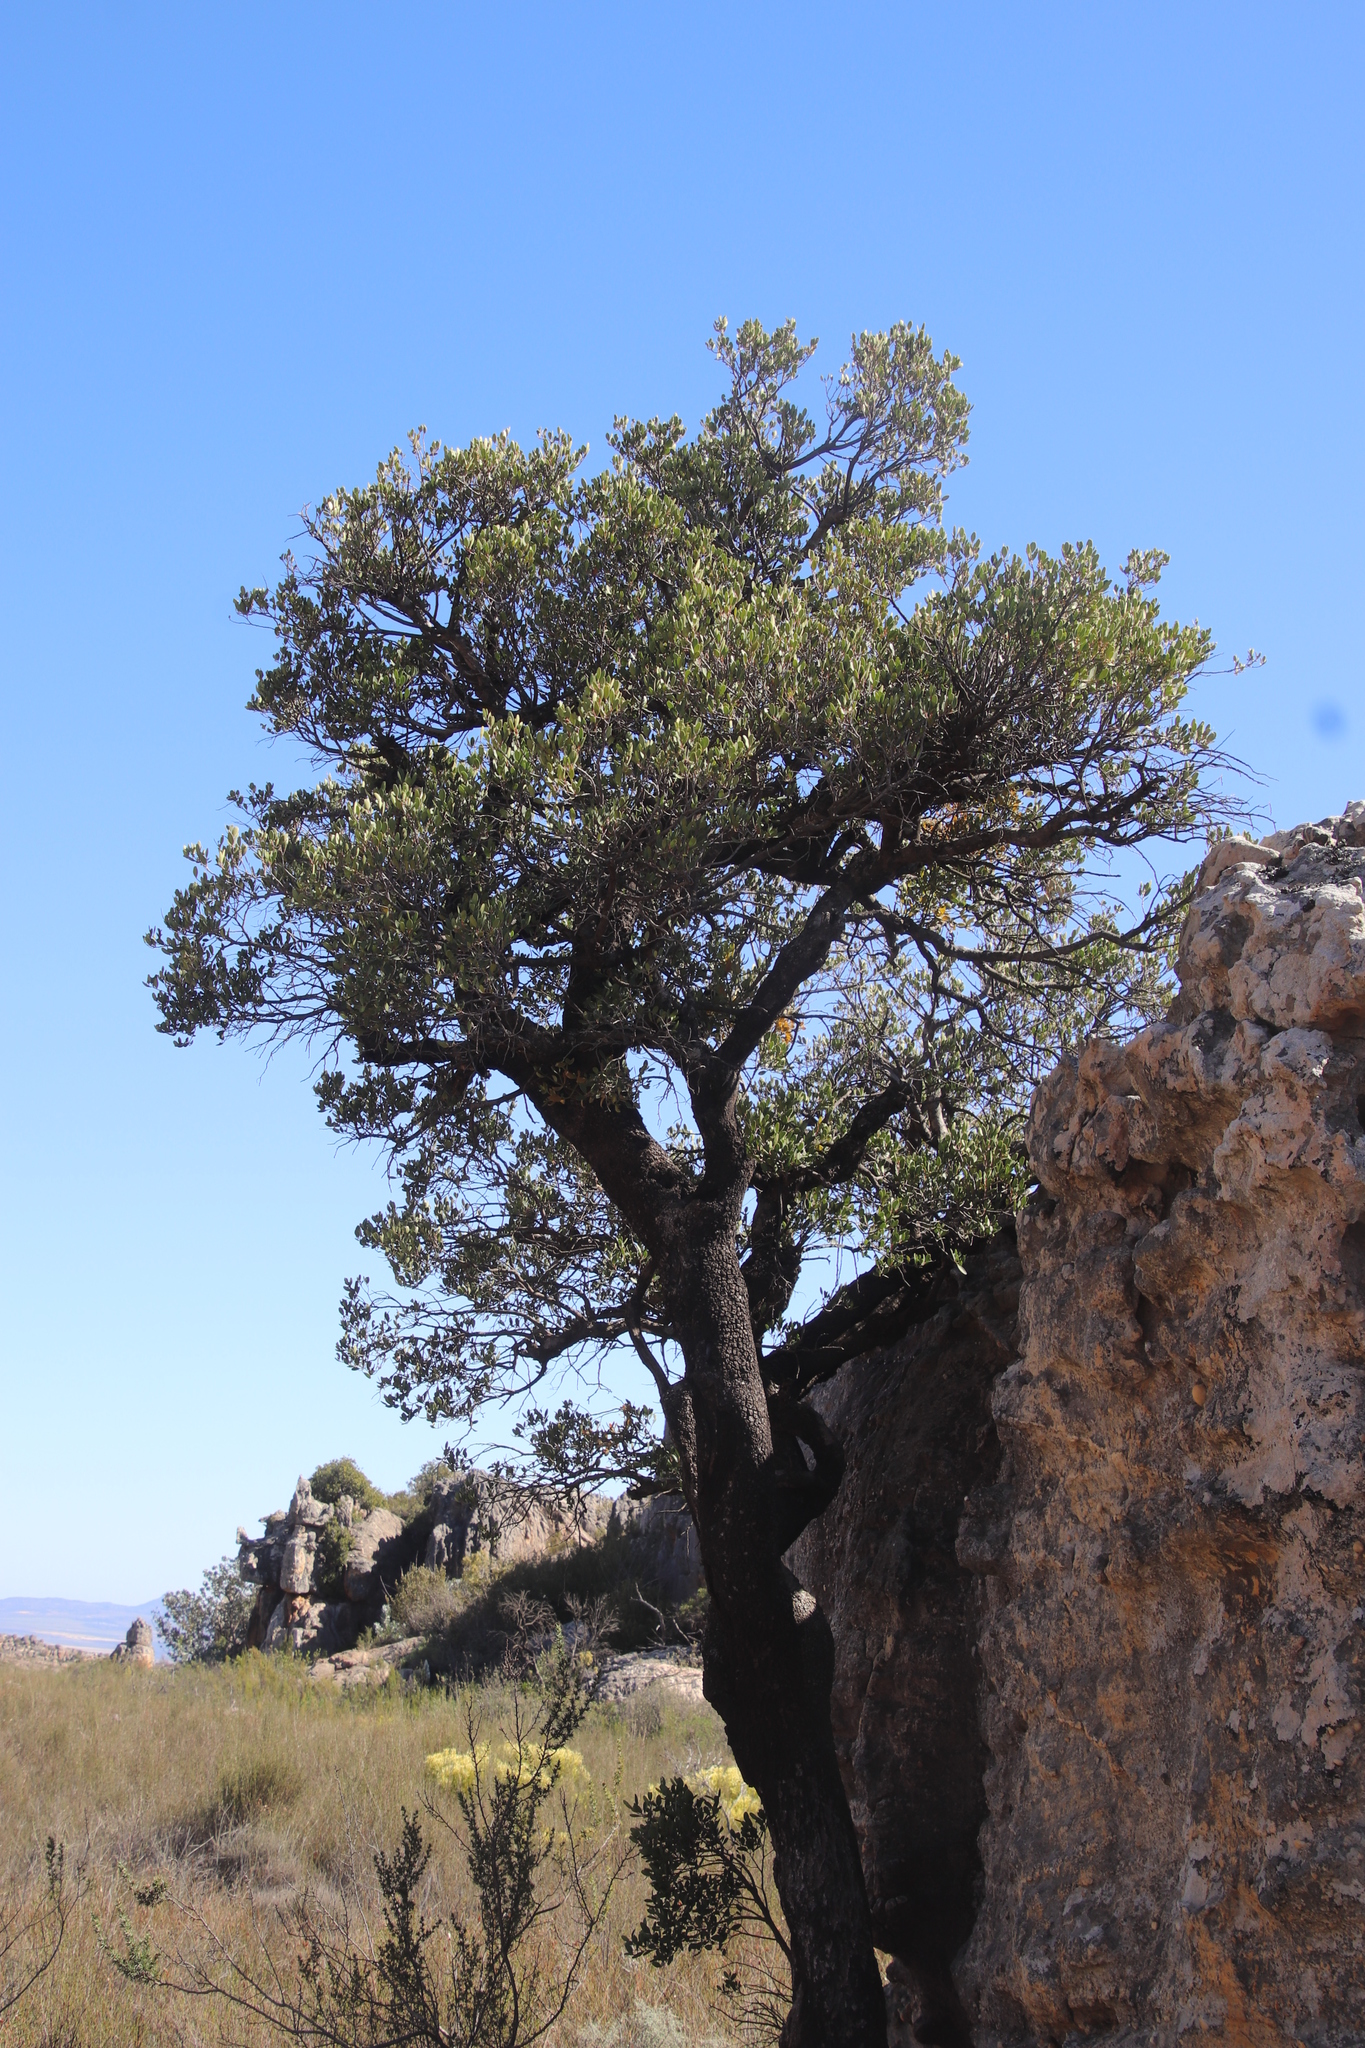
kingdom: Plantae
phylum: Tracheophyta
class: Magnoliopsida
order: Celastrales
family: Celastraceae
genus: Gymnosporia
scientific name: Gymnosporia laurina
